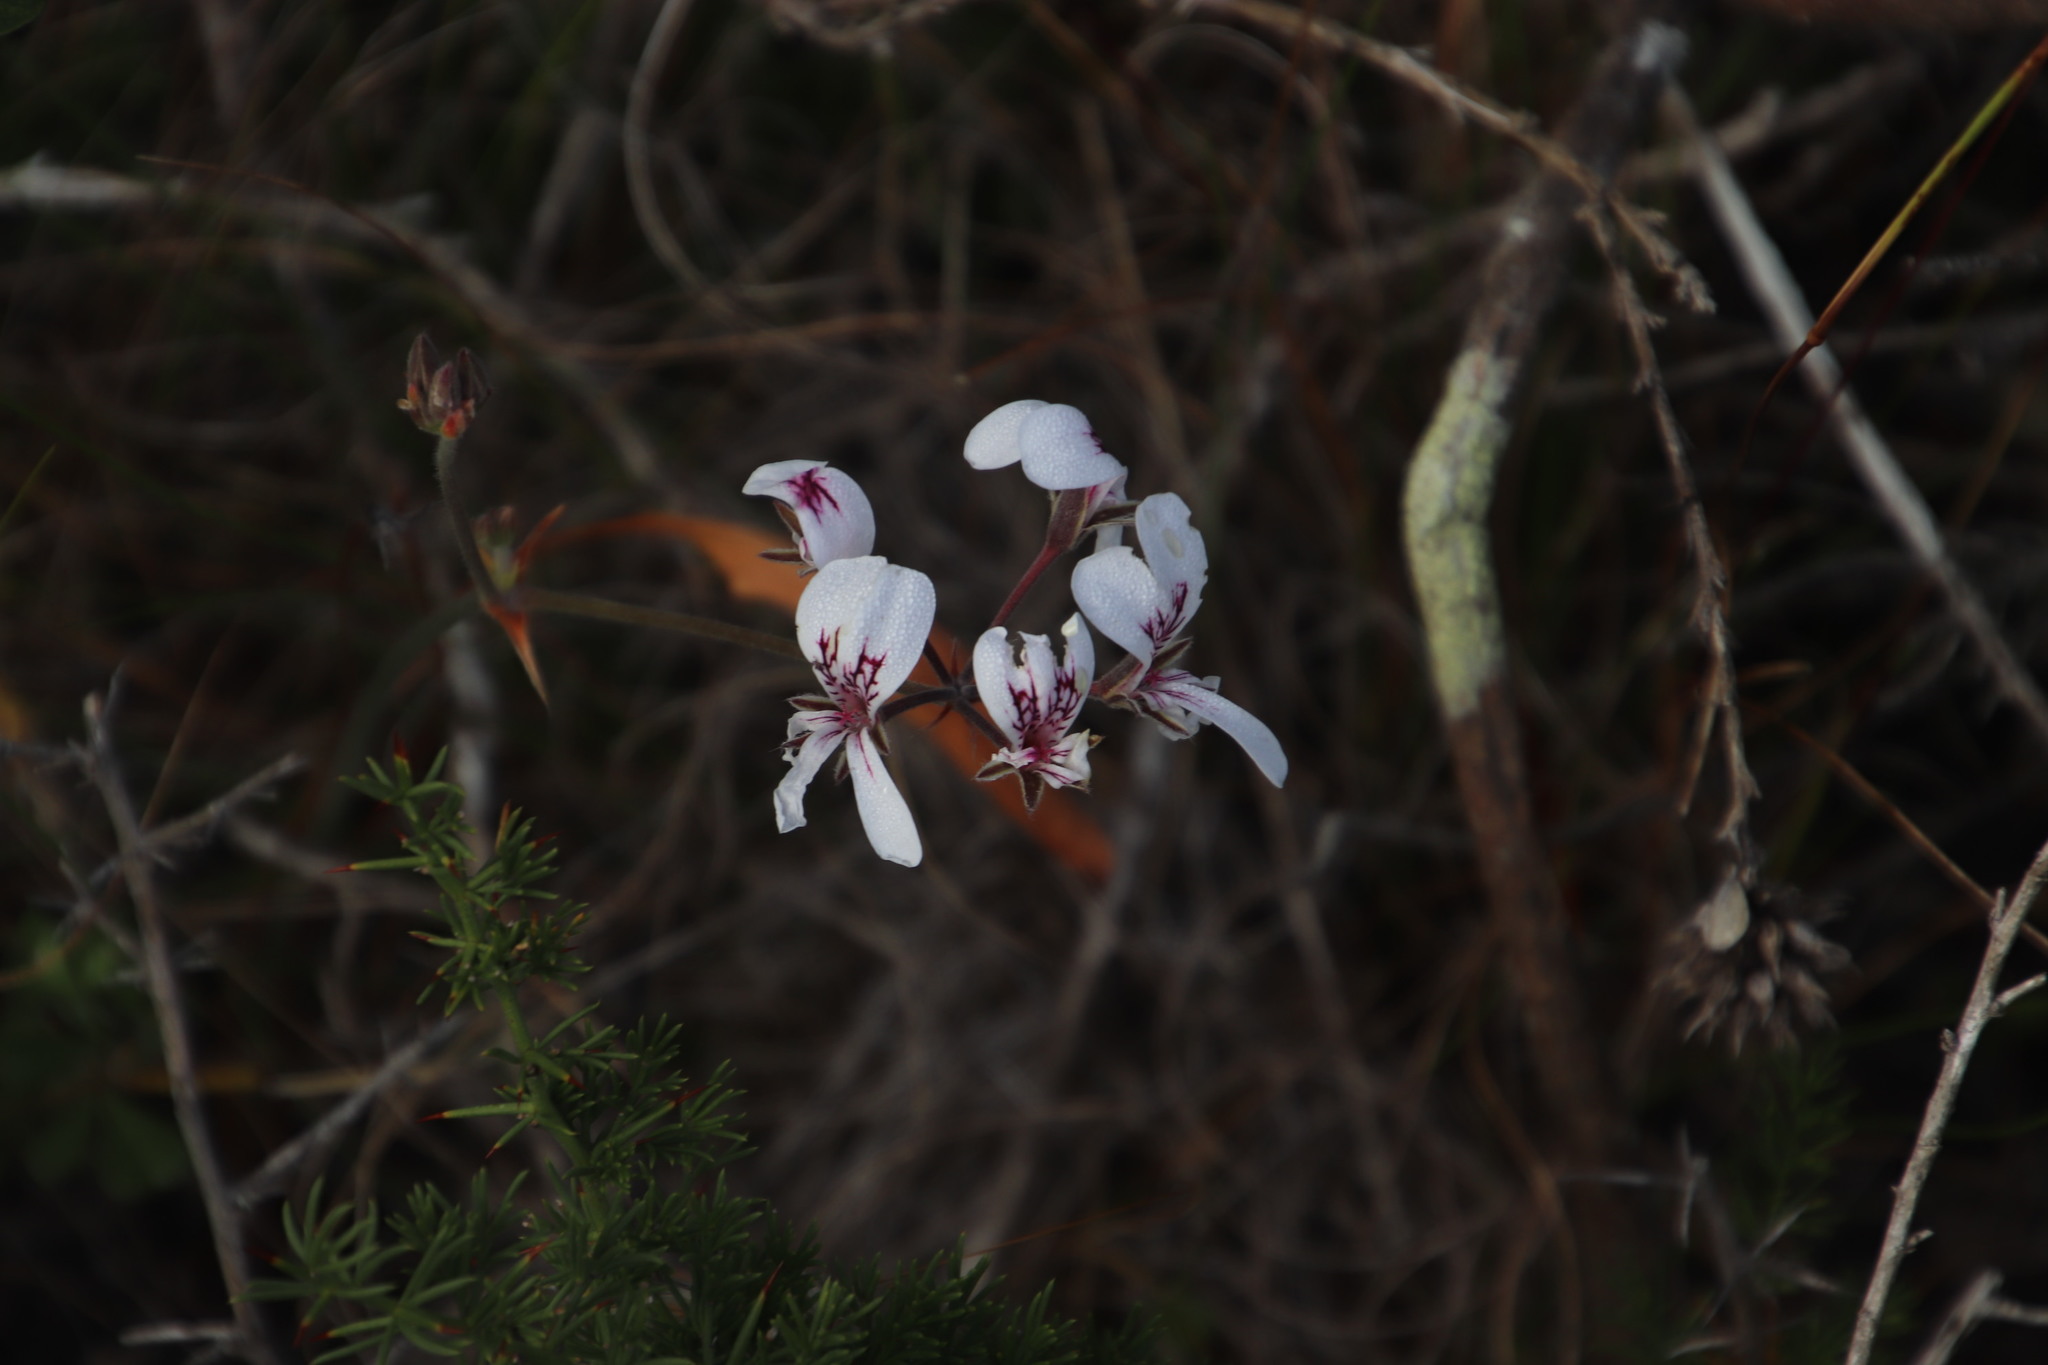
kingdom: Plantae
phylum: Tracheophyta
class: Magnoliopsida
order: Geraniales
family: Geraniaceae
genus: Pelargonium
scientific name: Pelargonium psammophilum
